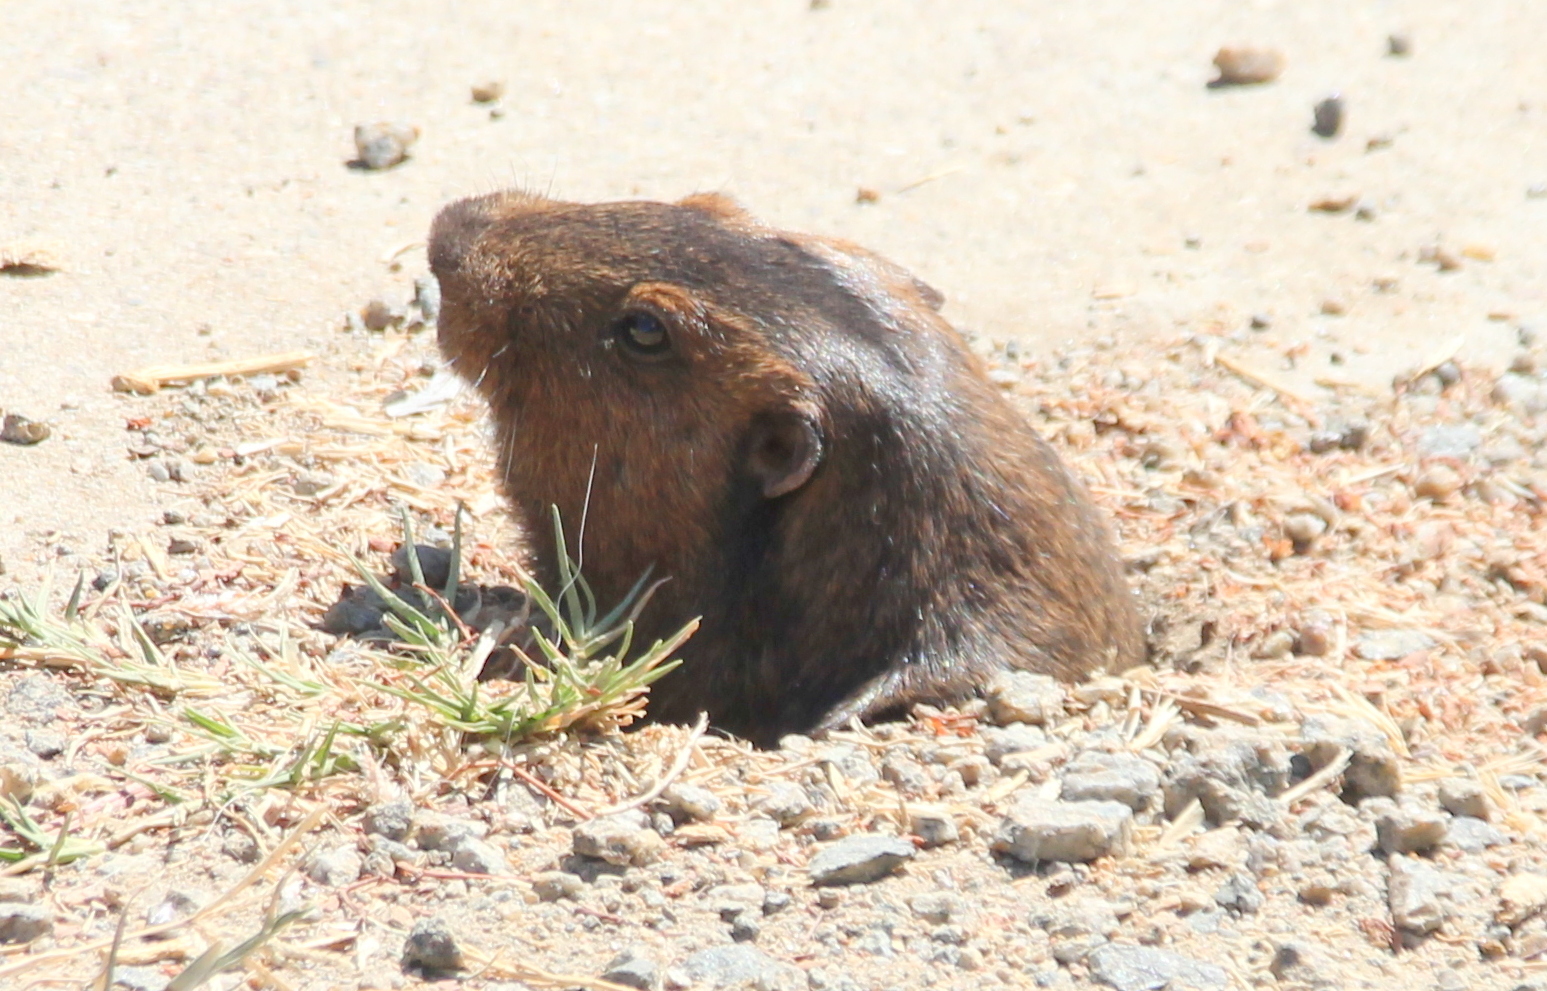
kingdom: Animalia
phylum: Chordata
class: Mammalia
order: Rodentia
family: Geomyidae
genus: Thomomys
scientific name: Thomomys bottae
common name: Botta's pocket gopher
